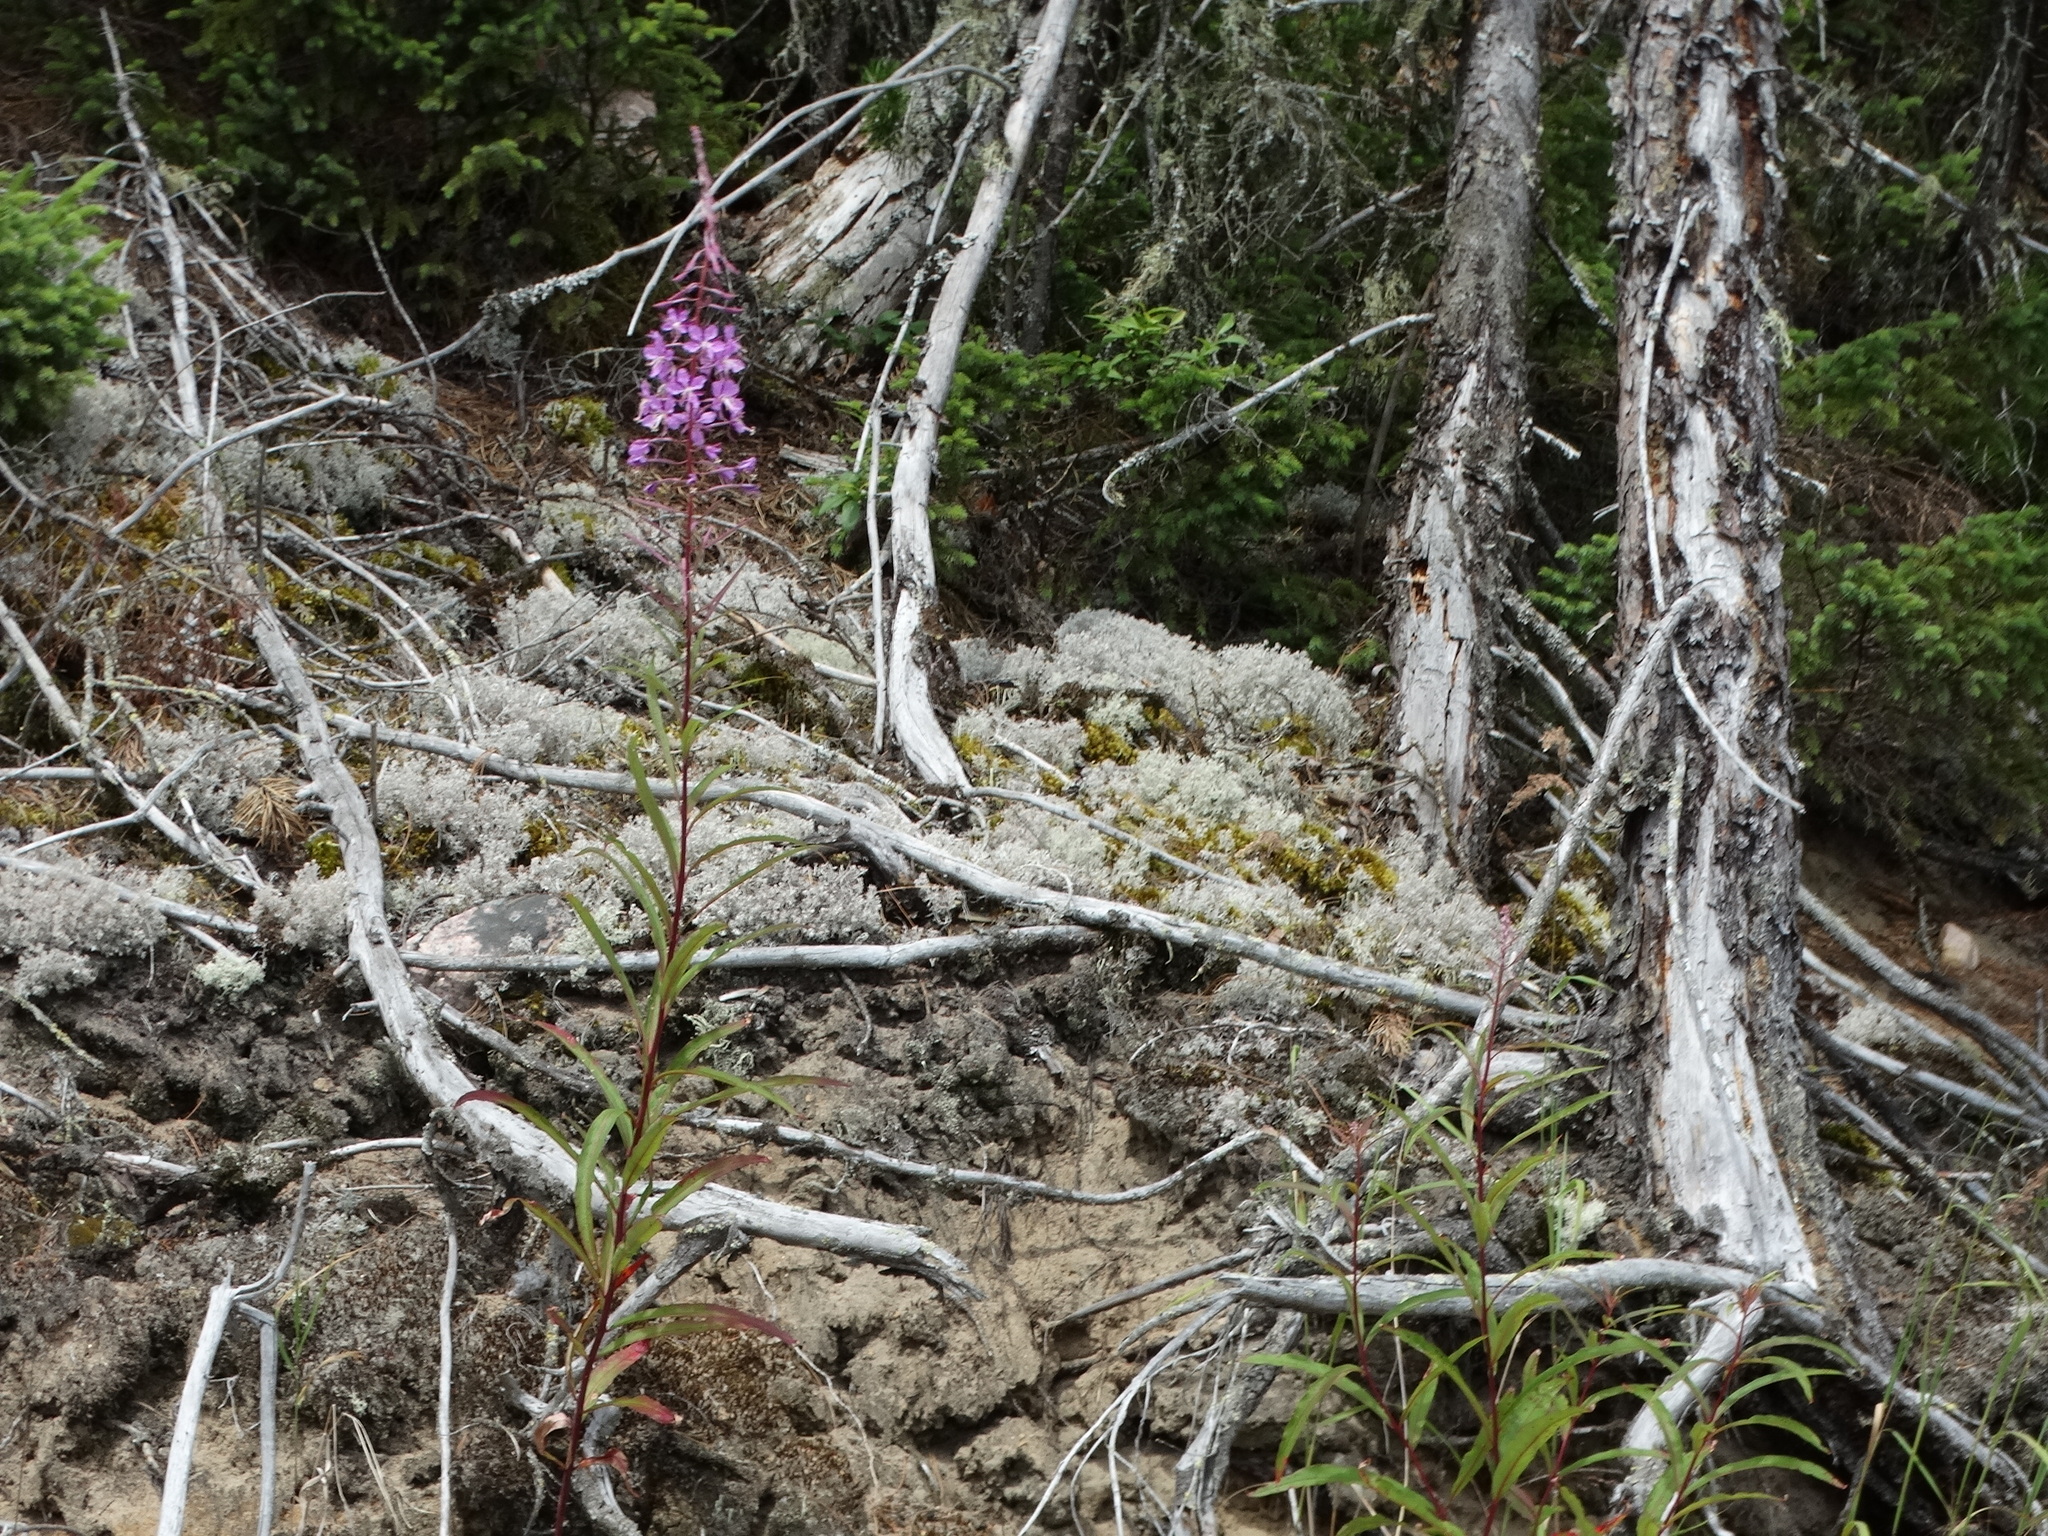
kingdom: Plantae
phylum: Tracheophyta
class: Magnoliopsida
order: Myrtales
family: Onagraceae
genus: Chamaenerion
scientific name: Chamaenerion angustifolium
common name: Fireweed
